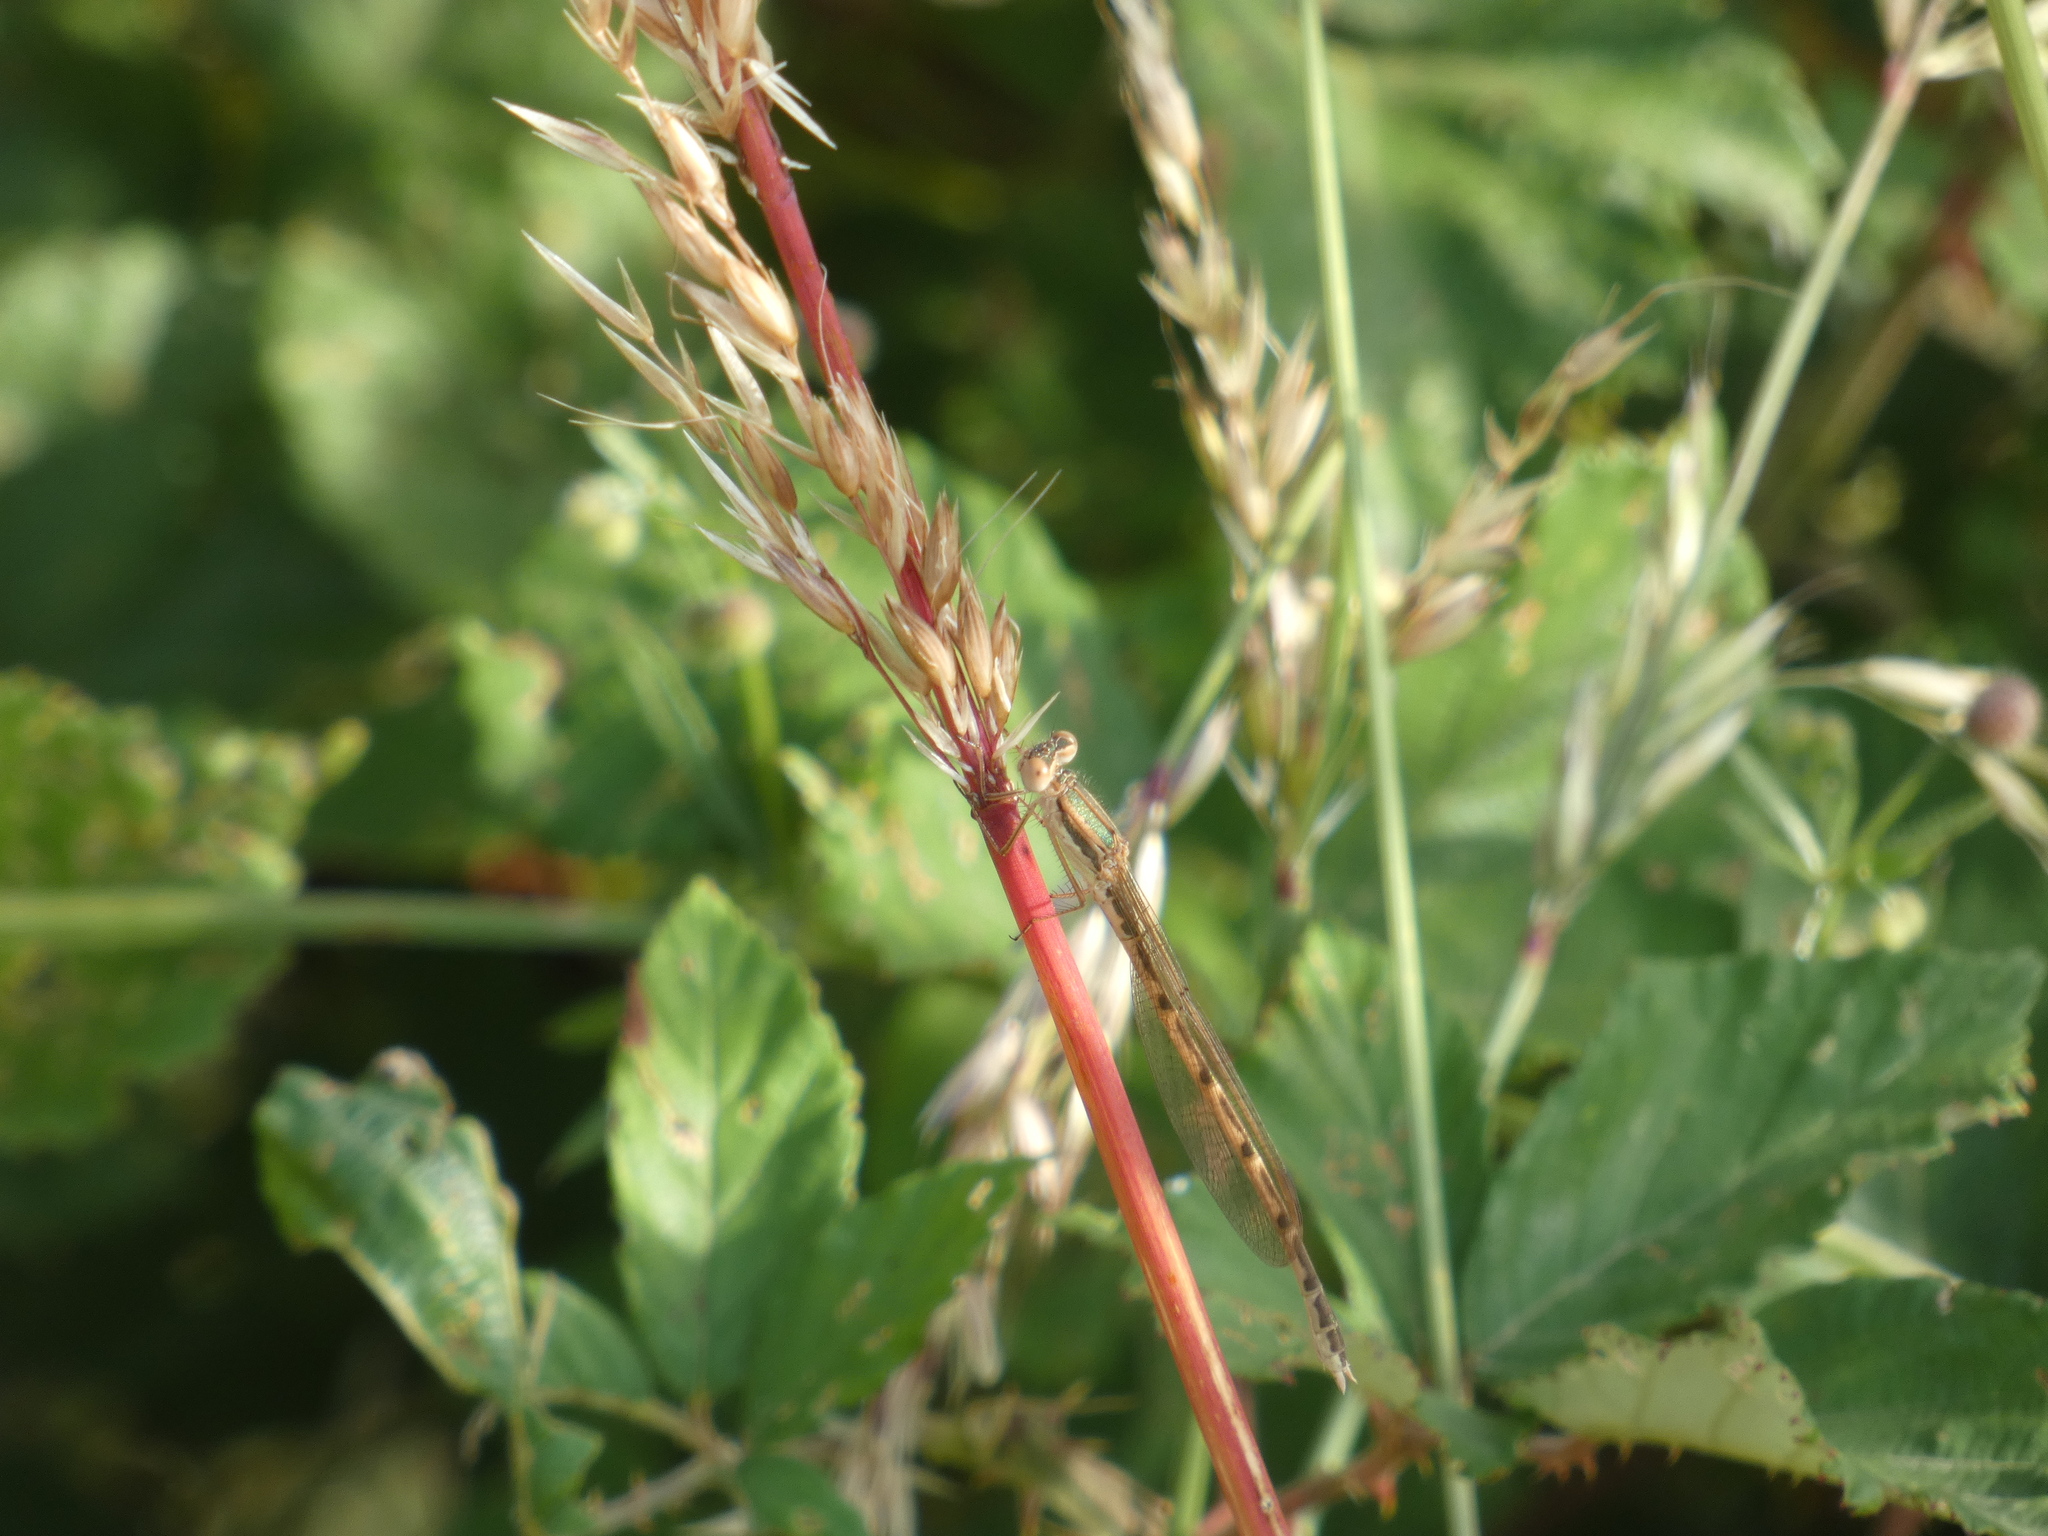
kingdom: Animalia
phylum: Arthropoda
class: Insecta
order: Odonata
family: Lestidae
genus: Sympecma
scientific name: Sympecma fusca
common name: Common winter damsel
